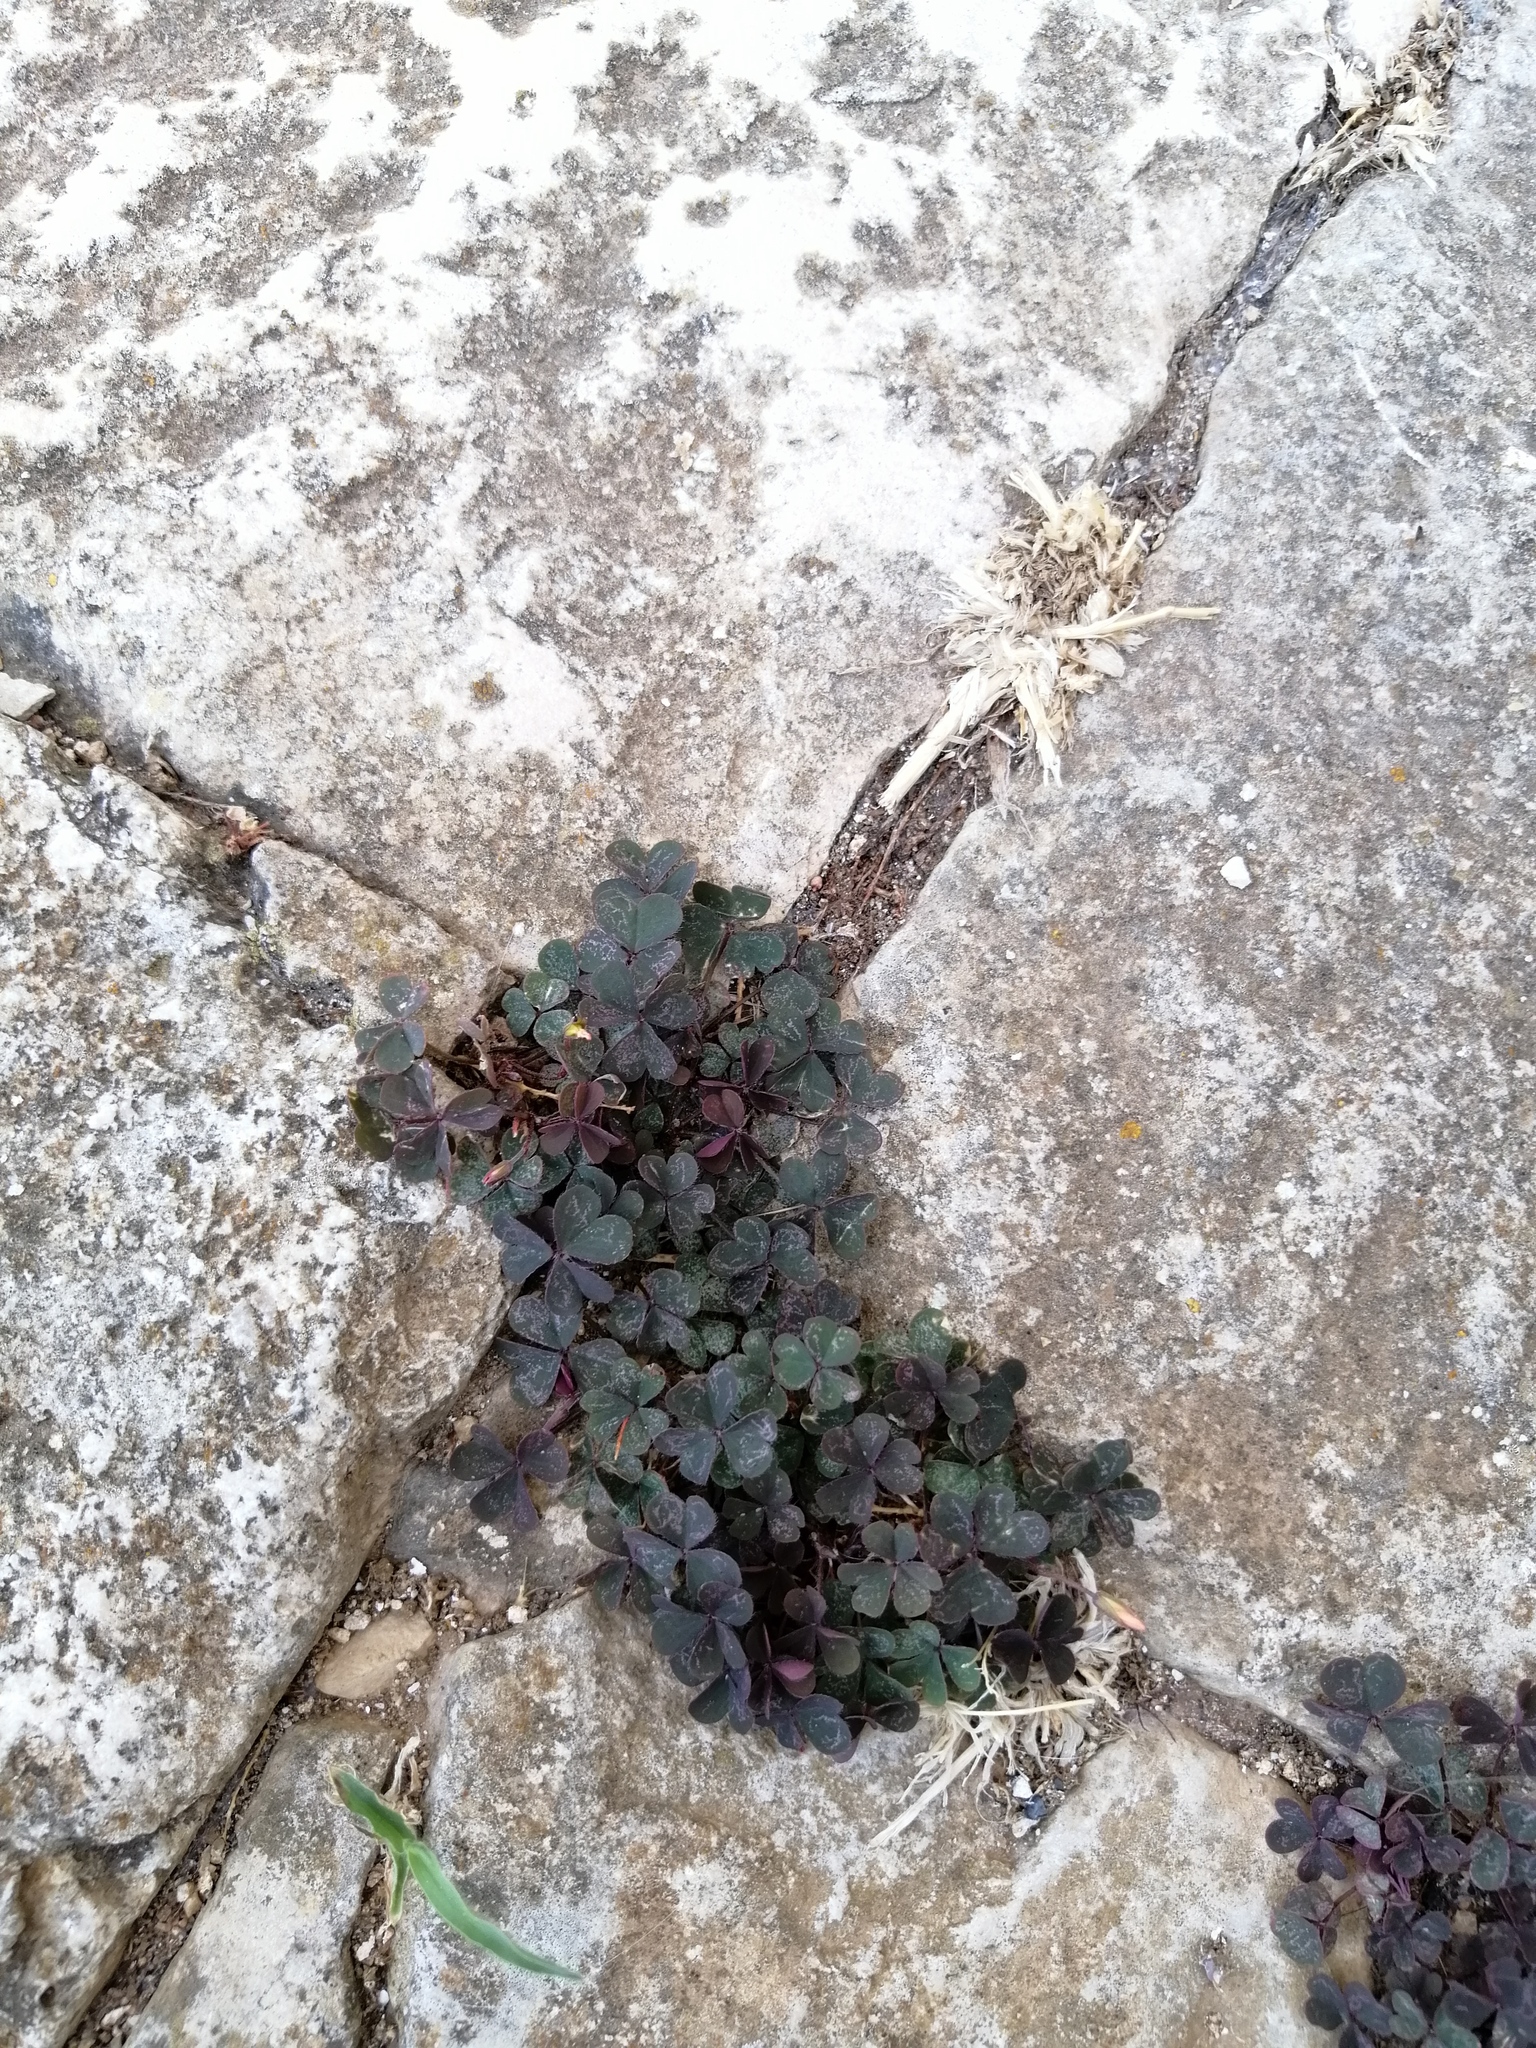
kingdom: Plantae
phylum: Tracheophyta
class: Magnoliopsida
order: Oxalidales
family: Oxalidaceae
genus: Oxalis
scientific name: Oxalis corniculata
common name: Procumbent yellow-sorrel
